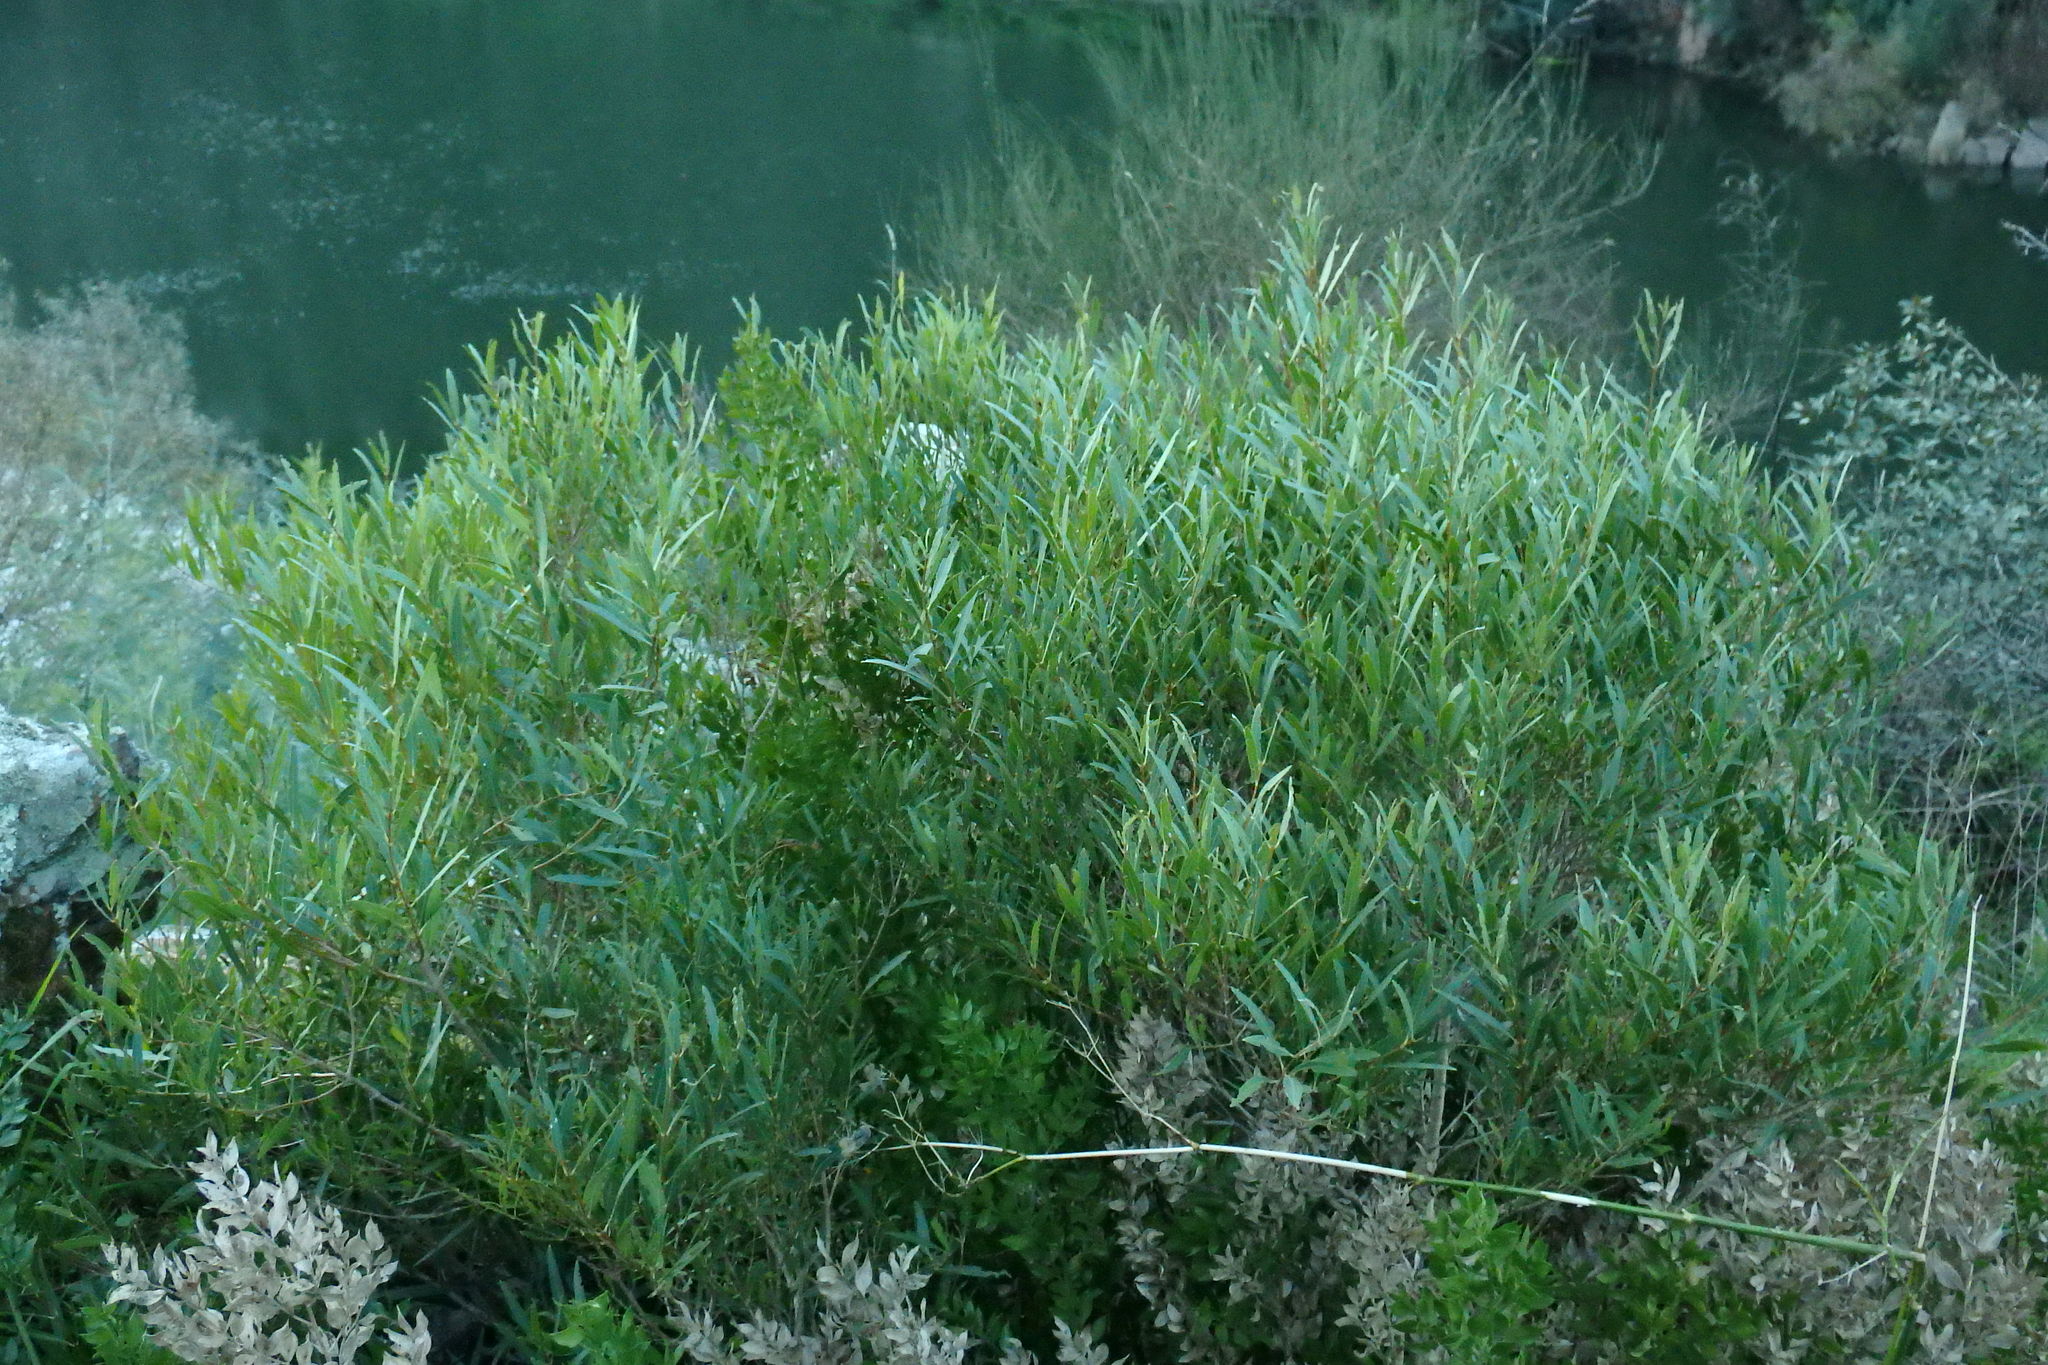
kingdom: Plantae
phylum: Tracheophyta
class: Magnoliopsida
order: Lamiales
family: Oleaceae
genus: Phillyrea
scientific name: Phillyrea angustifolia
